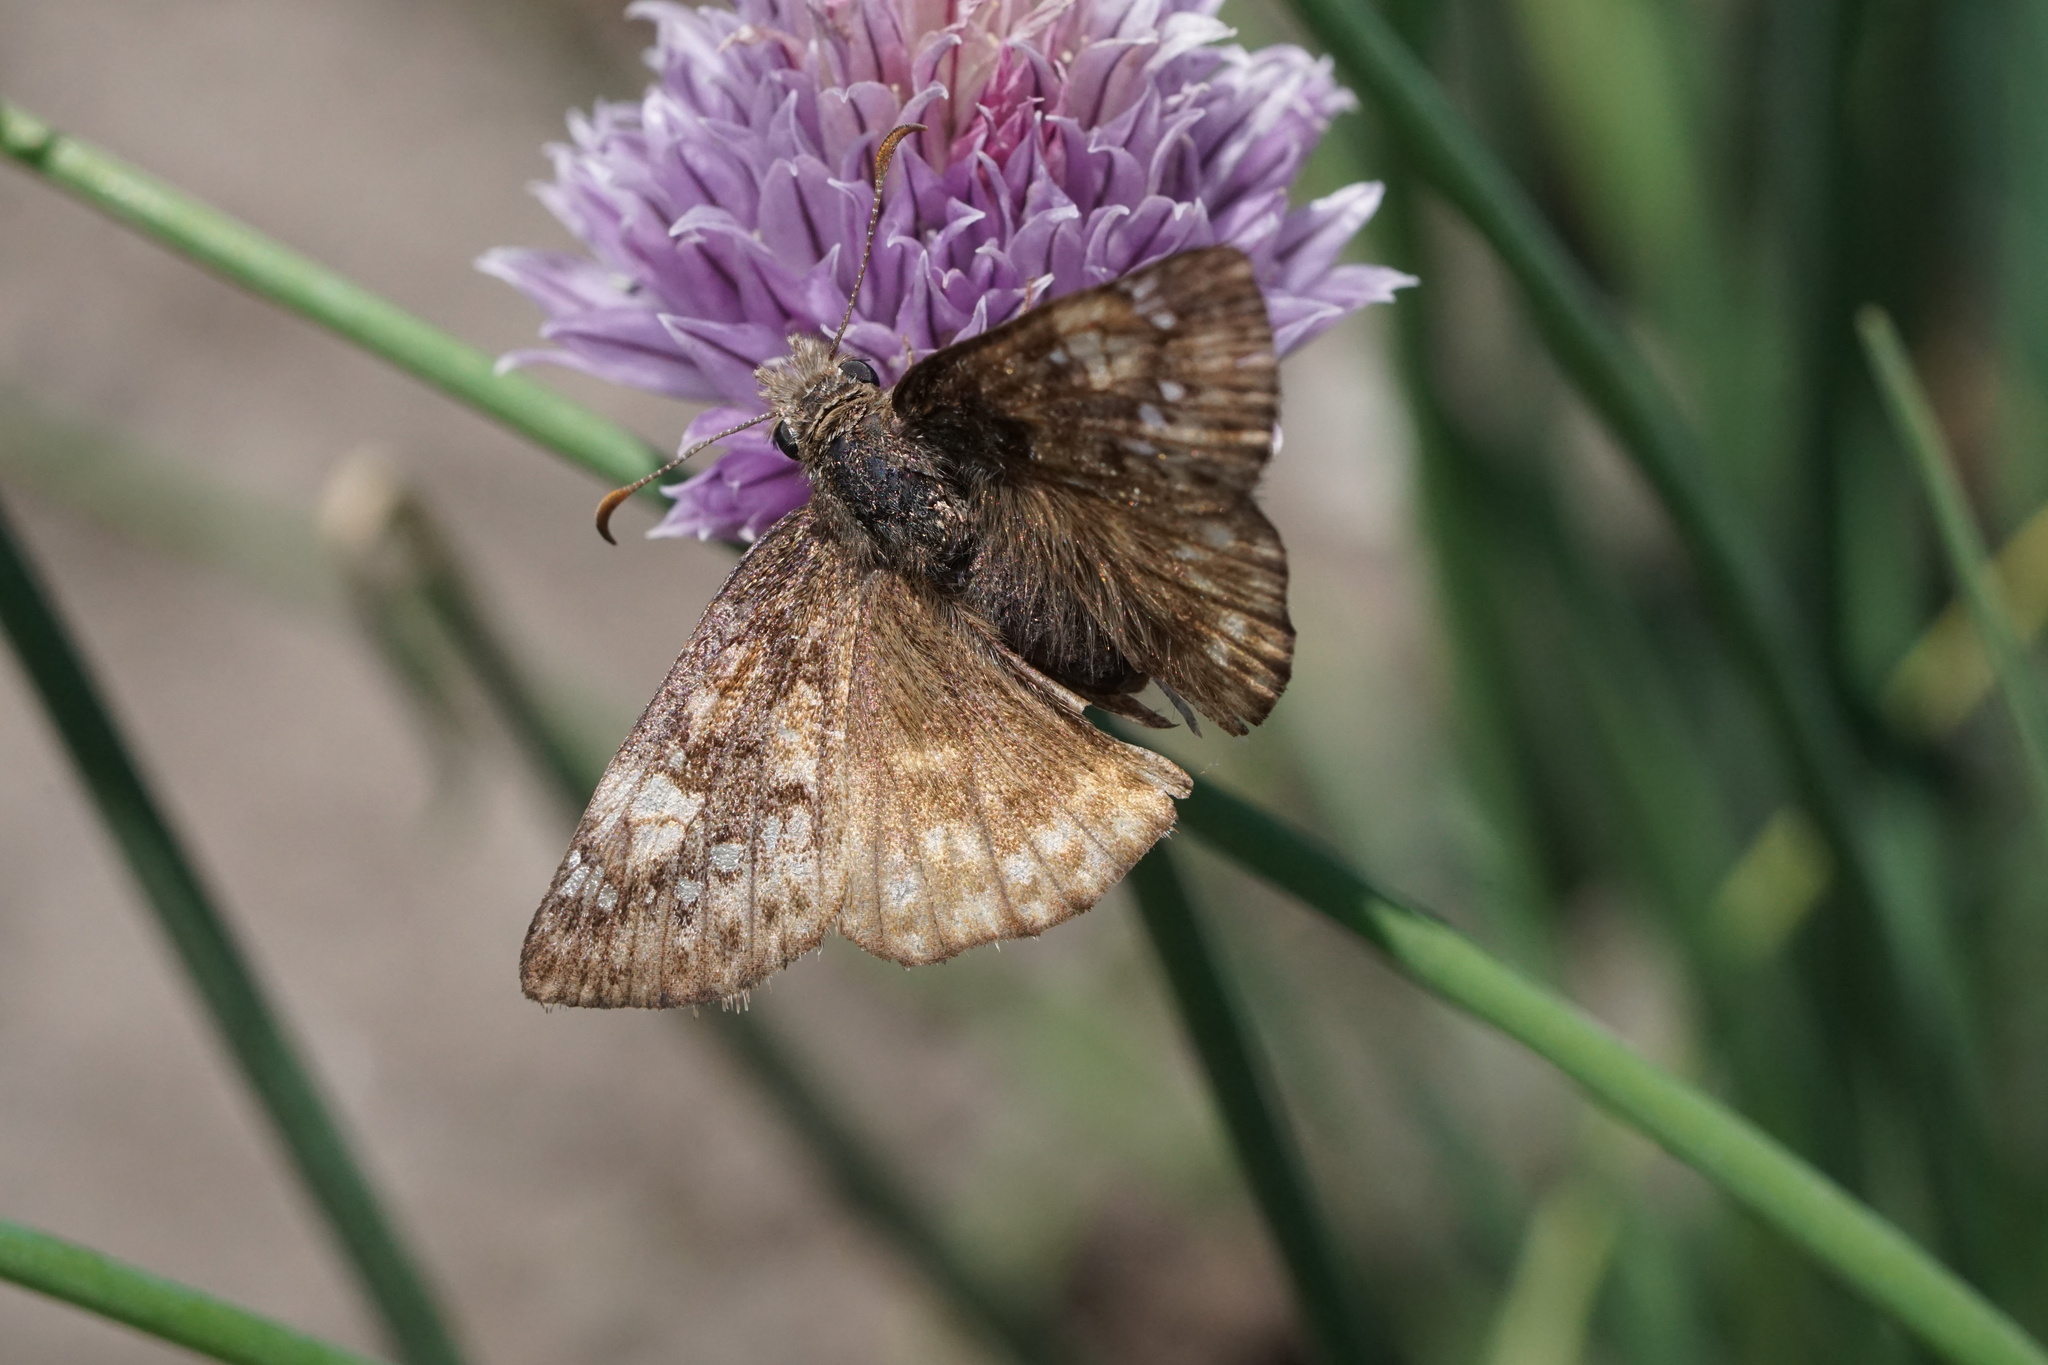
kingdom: Animalia
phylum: Arthropoda
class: Insecta
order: Lepidoptera
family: Hesperiidae
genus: Erynnis
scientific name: Erynnis juvenalis
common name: Juvenal's duskywing
